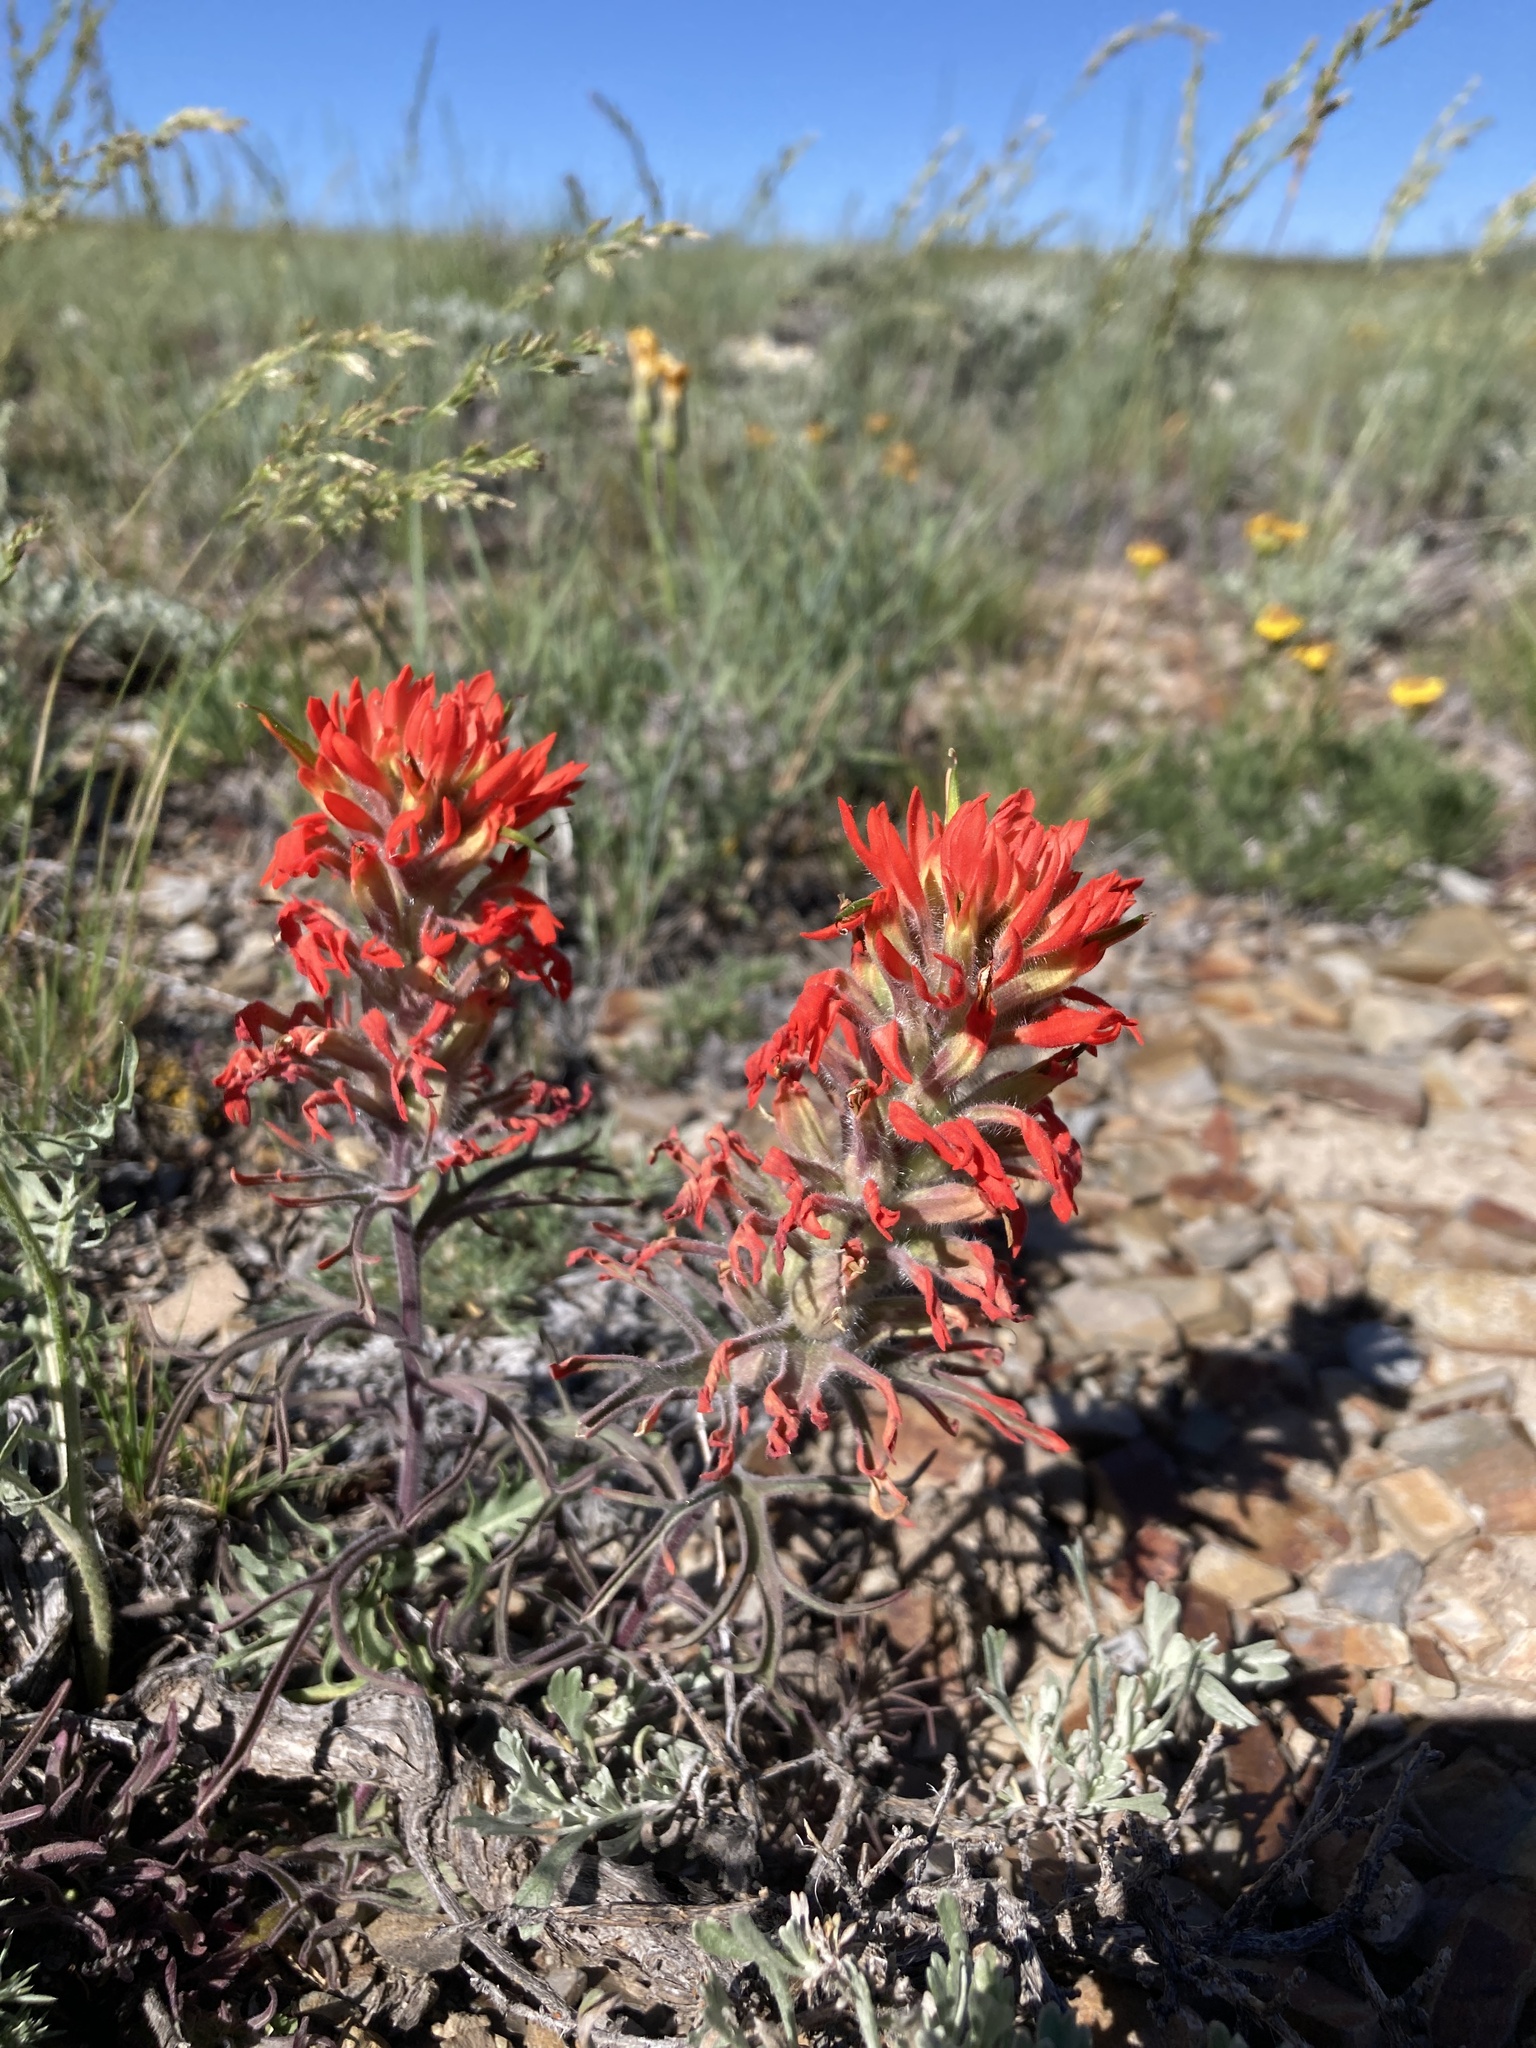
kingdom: Plantae
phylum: Tracheophyta
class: Magnoliopsida
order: Lamiales
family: Orobanchaceae
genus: Castilleja
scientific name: Castilleja chromosa
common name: Desert paintbrush
